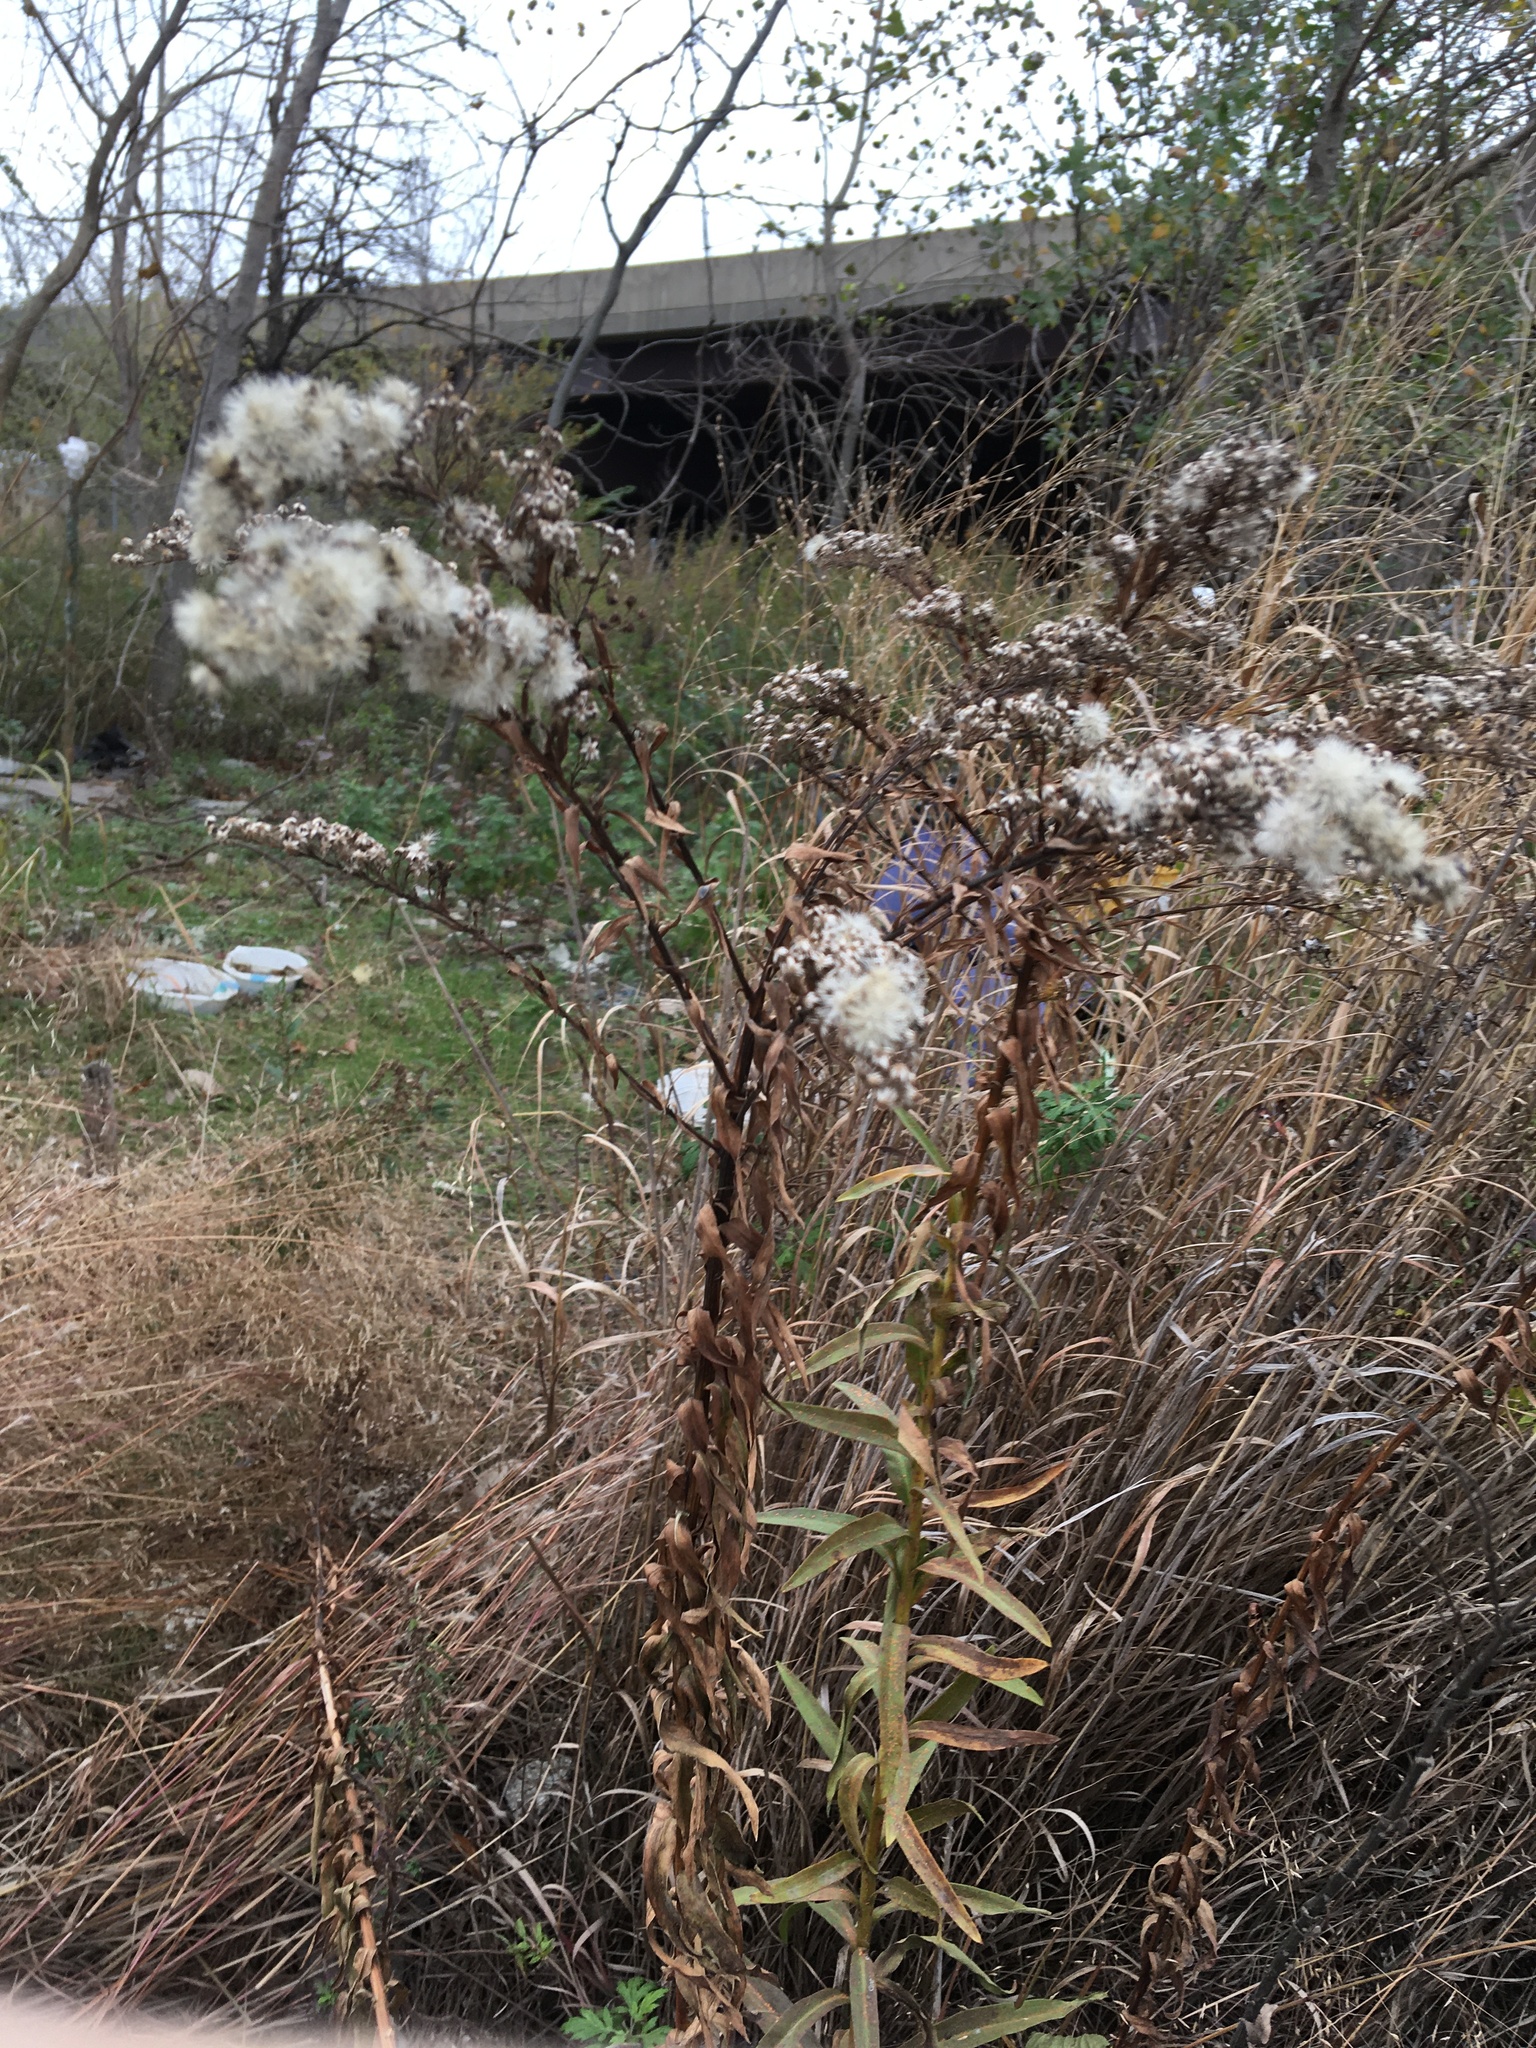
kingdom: Plantae
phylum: Tracheophyta
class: Magnoliopsida
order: Asterales
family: Asteraceae
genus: Solidago
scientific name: Solidago sempervirens
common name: Salt-marsh goldenrod
